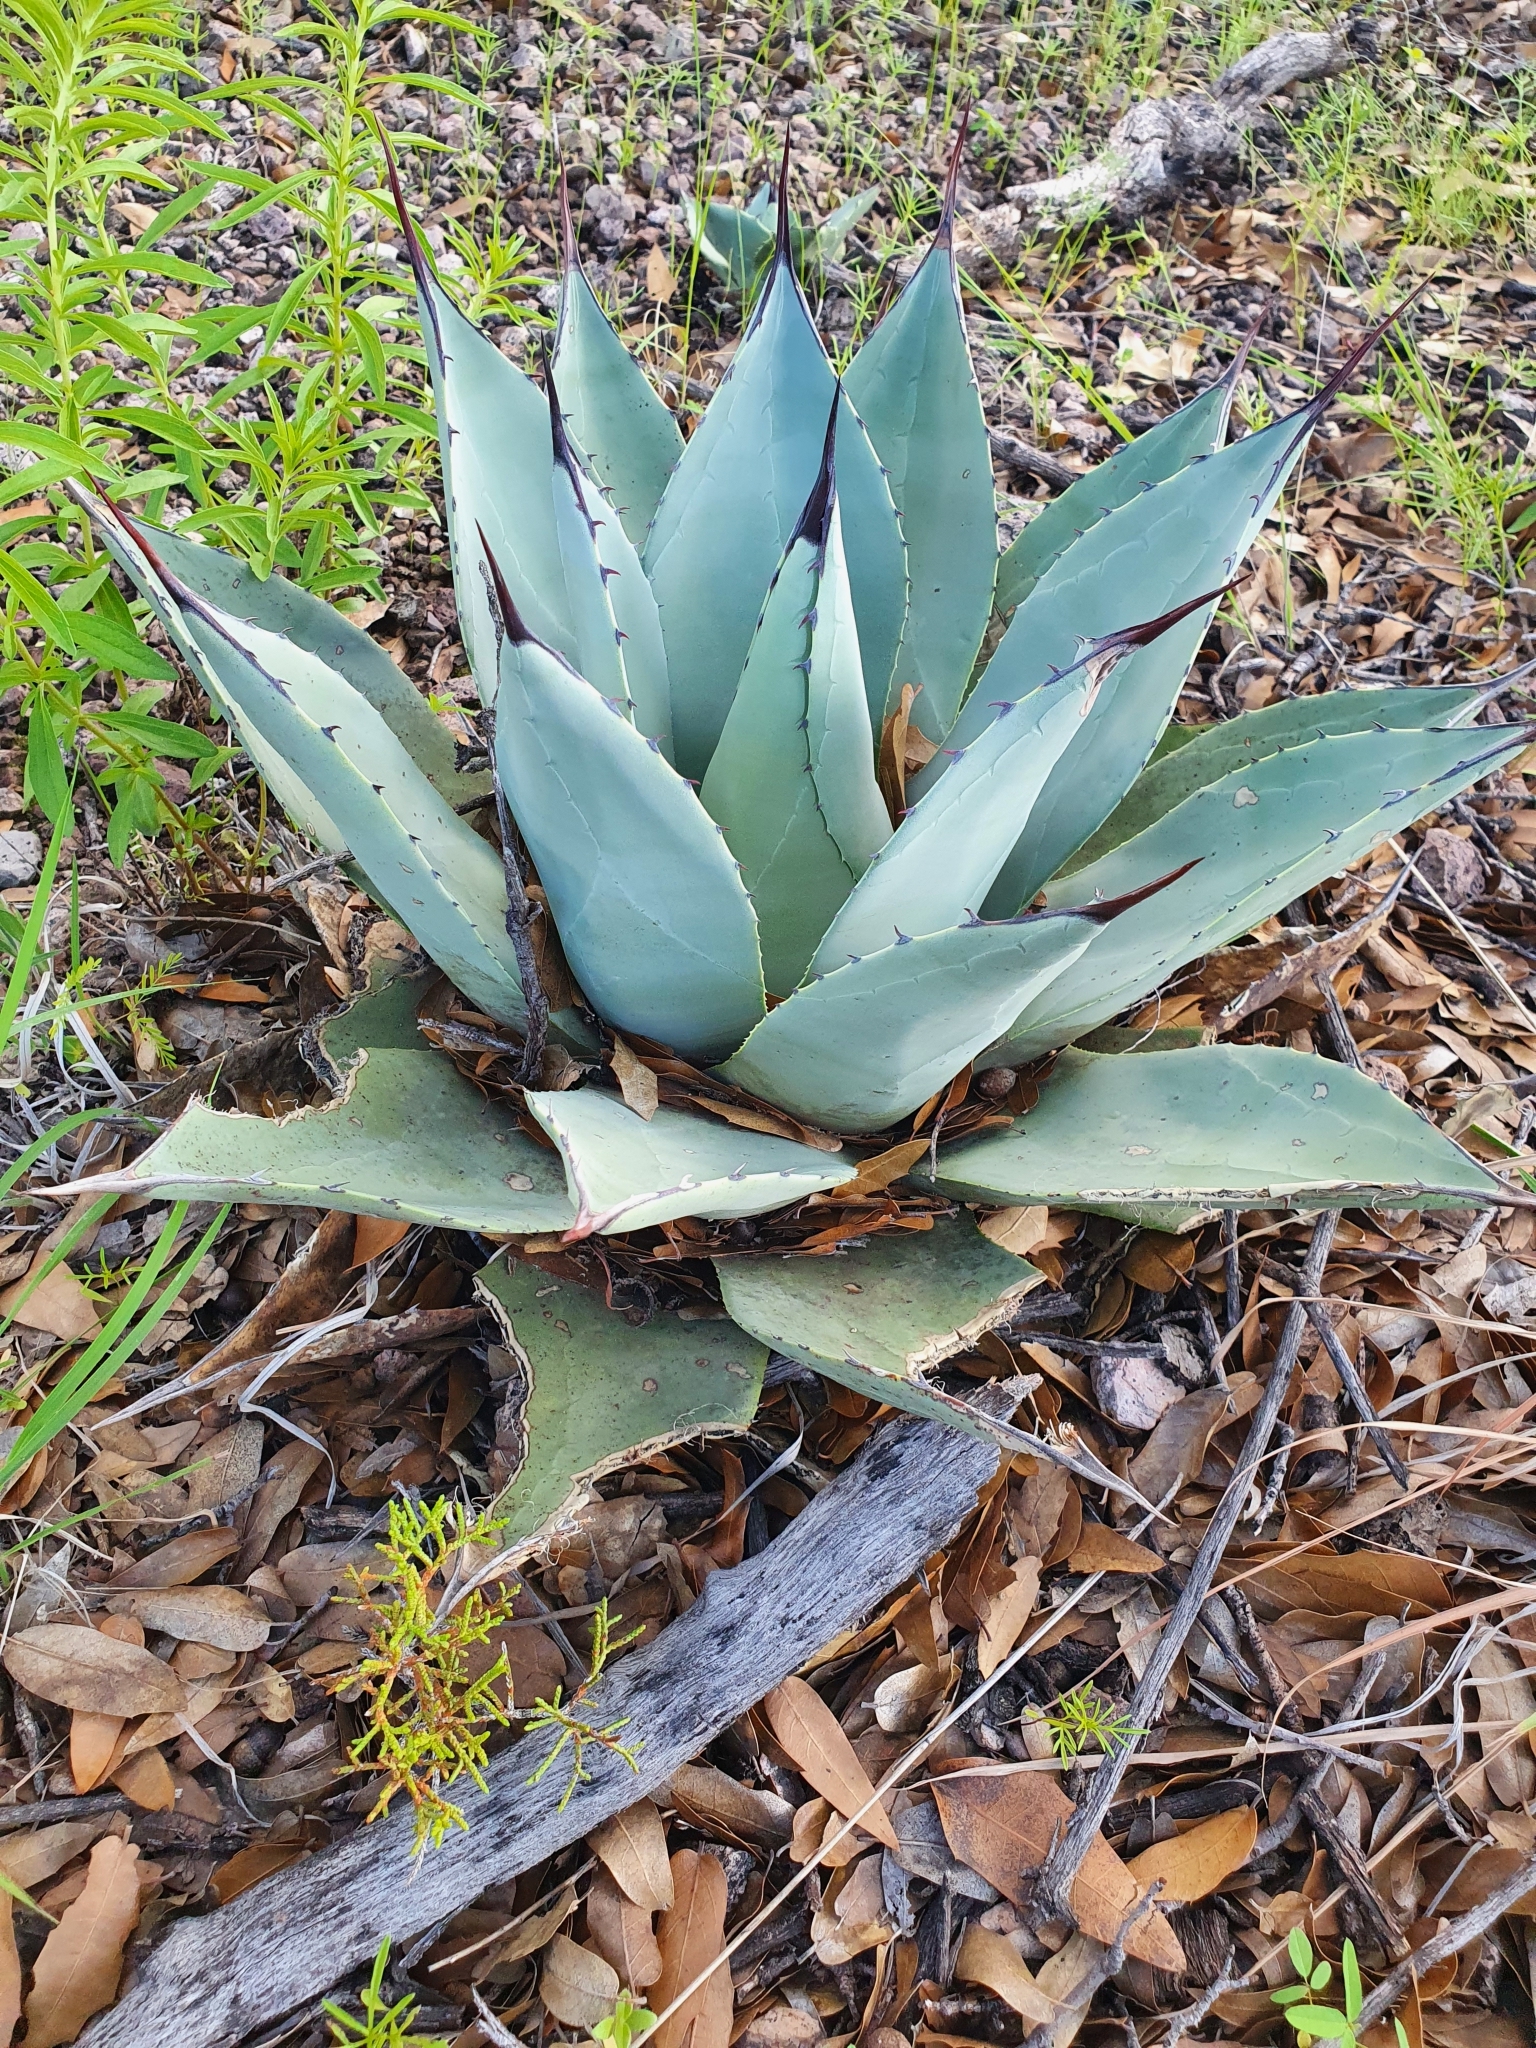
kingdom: Plantae
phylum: Tracheophyta
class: Liliopsida
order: Asparagales
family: Asparagaceae
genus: Agave
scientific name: Agave parryi
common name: Parry's agave
